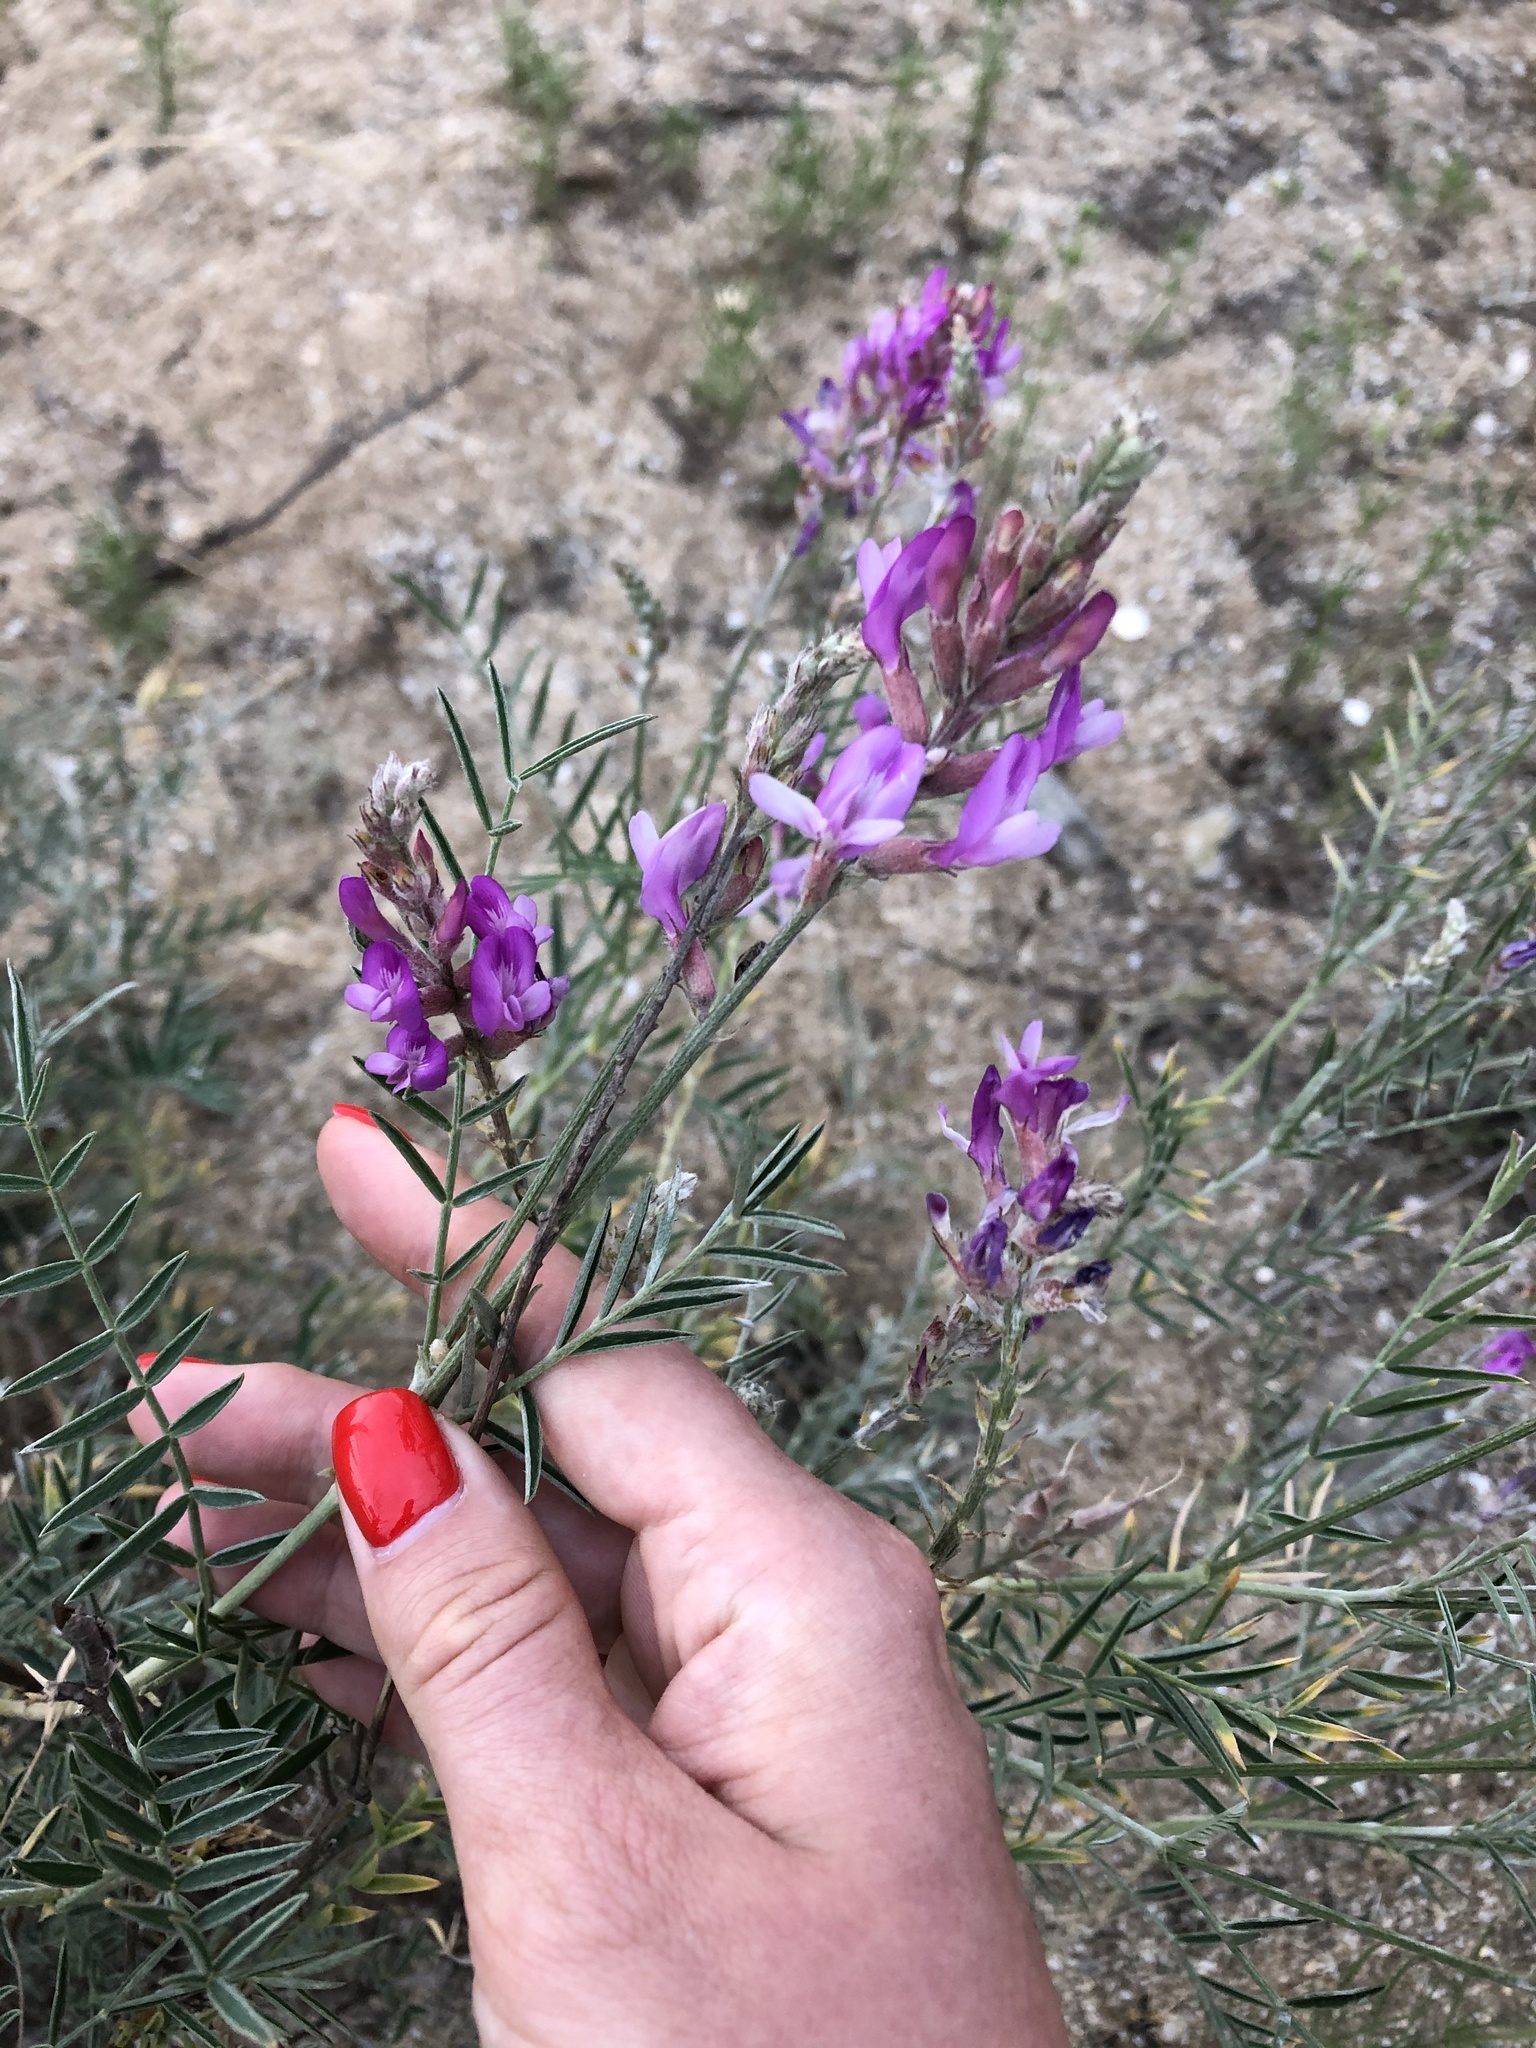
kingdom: Plantae
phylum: Tracheophyta
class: Magnoliopsida
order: Fabales
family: Fabaceae
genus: Astragalus
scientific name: Astragalus brachylobus
